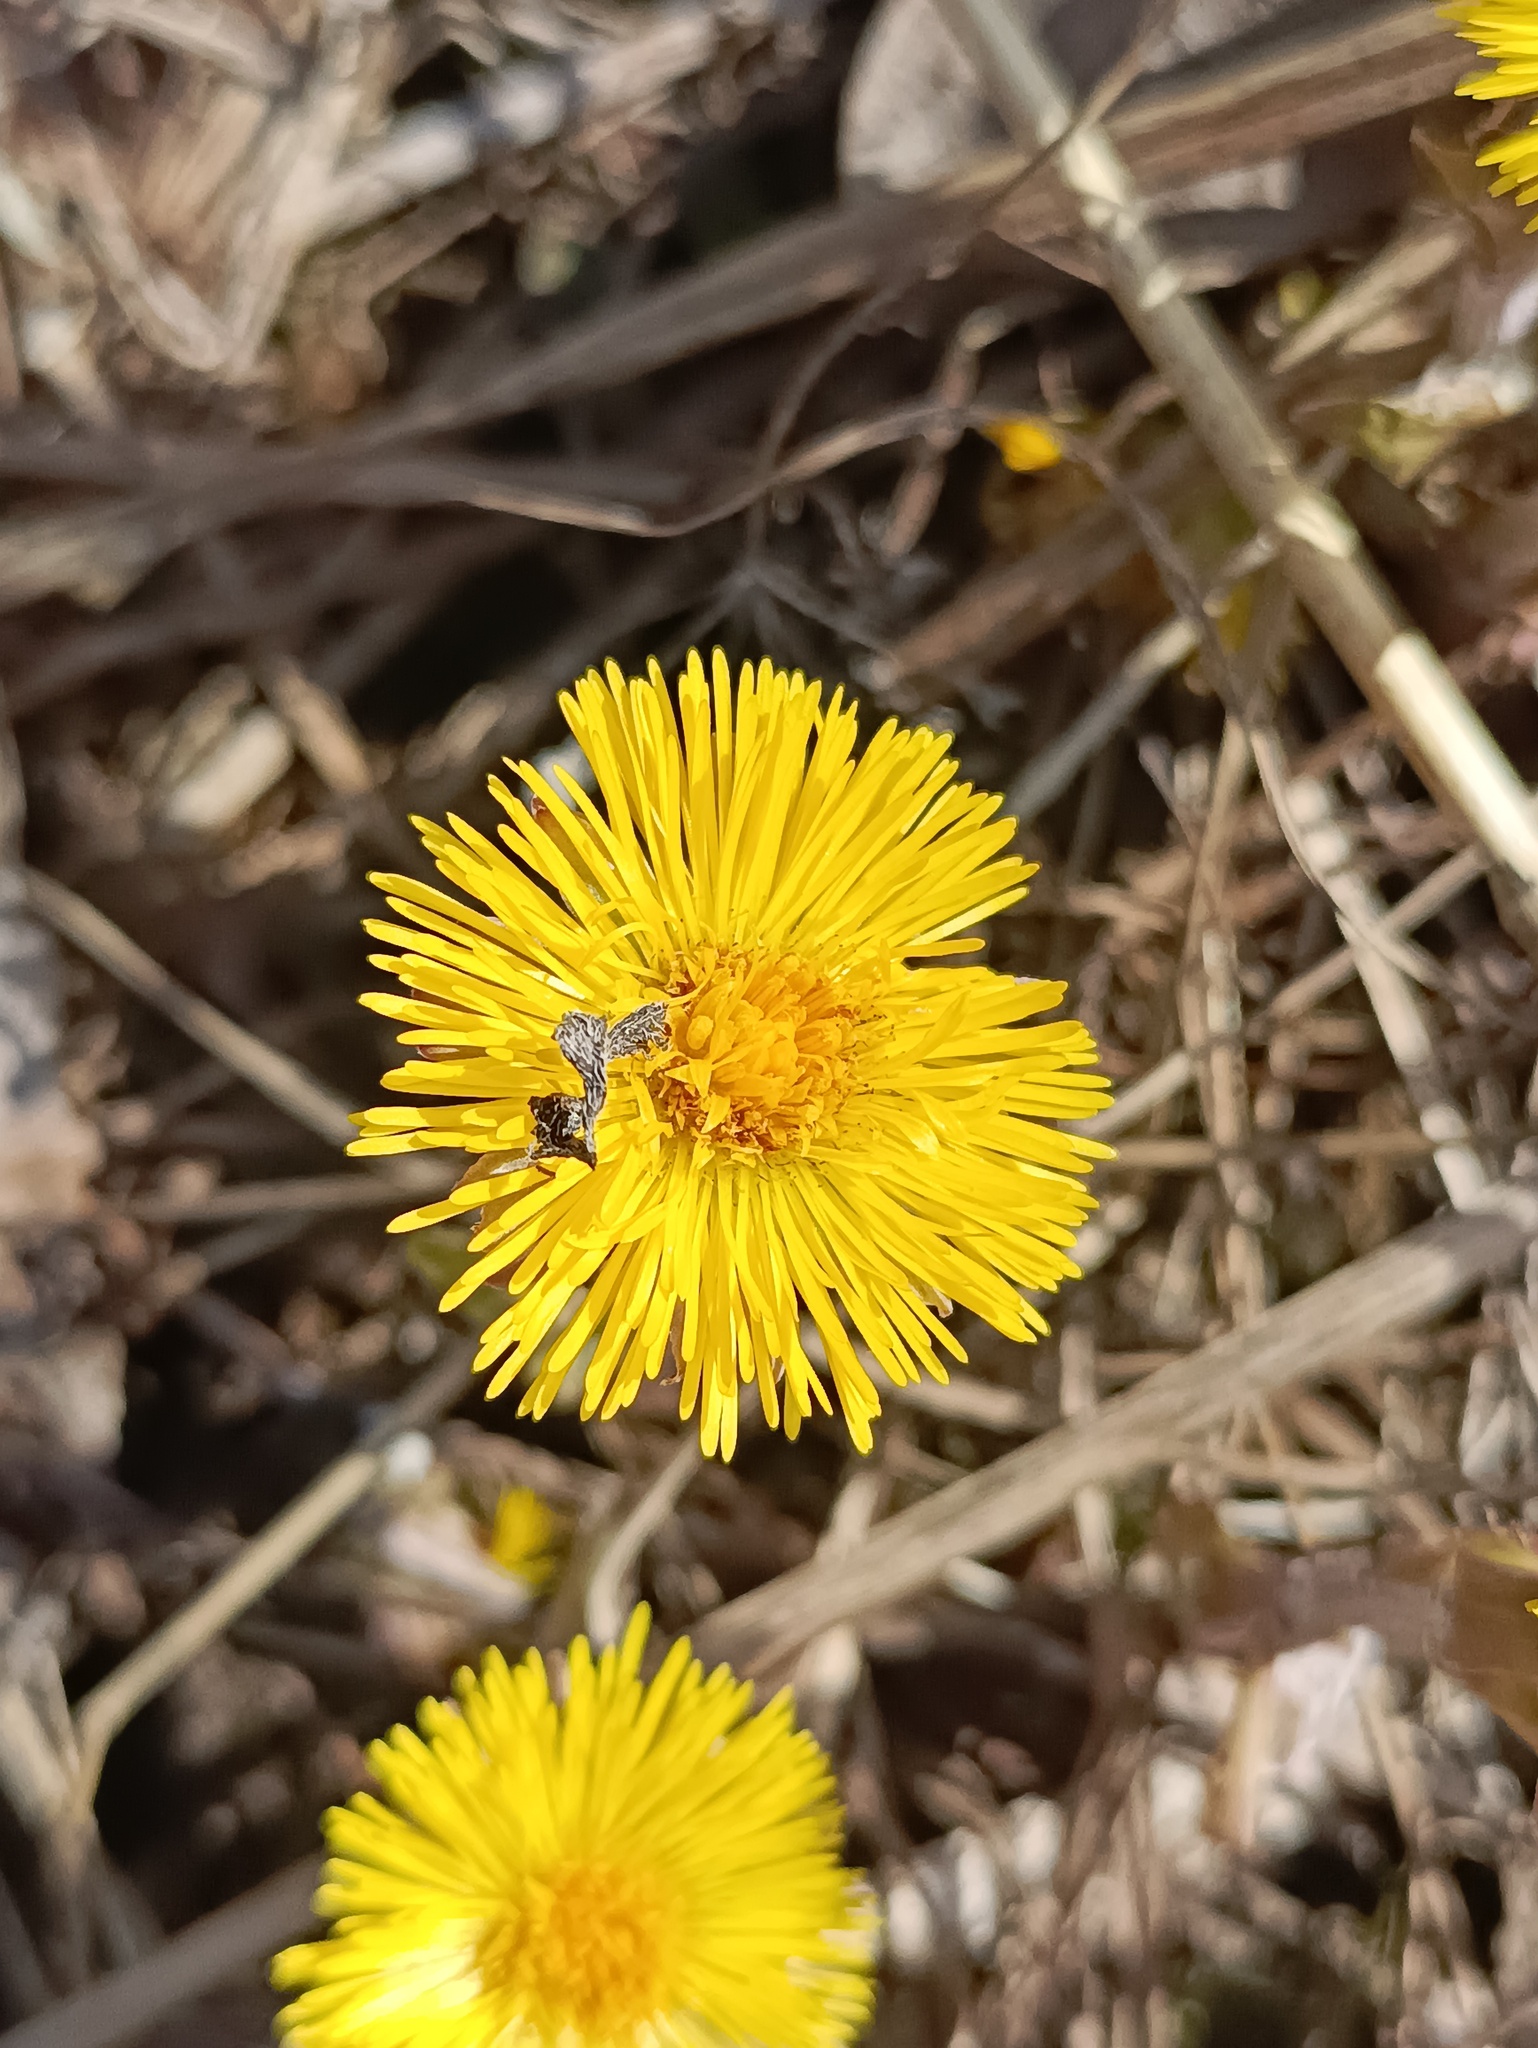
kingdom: Plantae
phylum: Tracheophyta
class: Magnoliopsida
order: Asterales
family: Asteraceae
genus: Tussilago
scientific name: Tussilago farfara
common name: Coltsfoot
